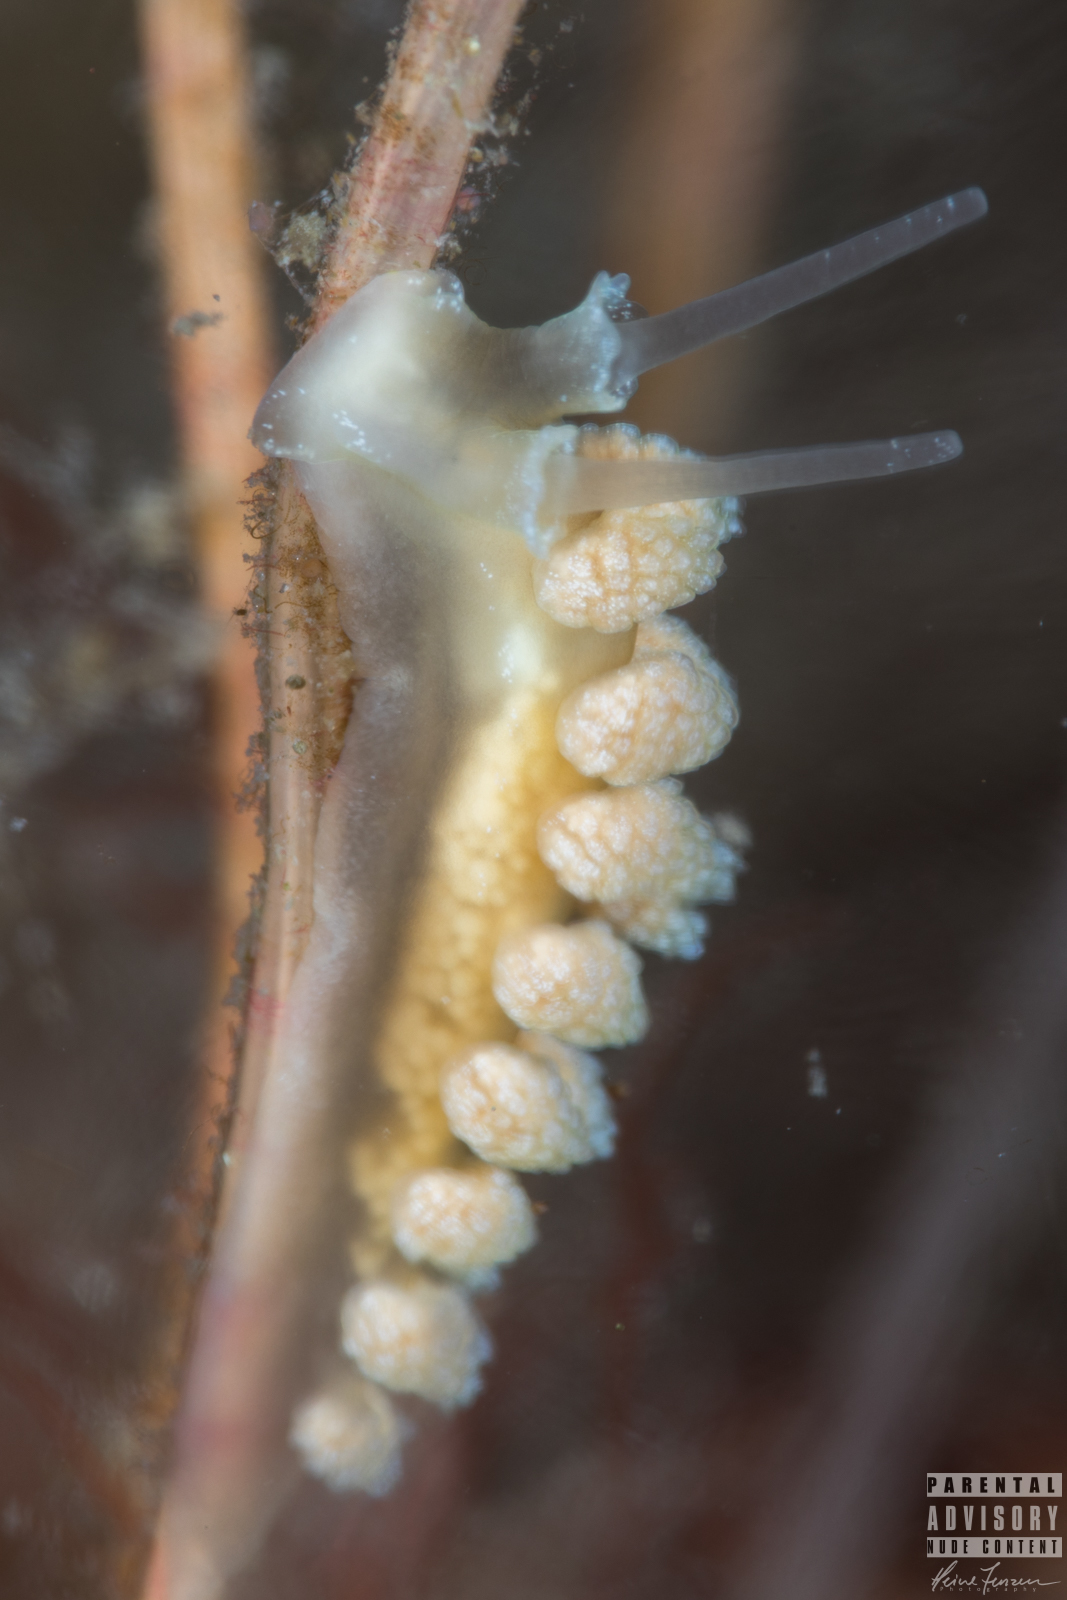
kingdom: Animalia
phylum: Mollusca
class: Gastropoda
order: Nudibranchia
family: Dotidae
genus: Doto
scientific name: Doto fragilis
